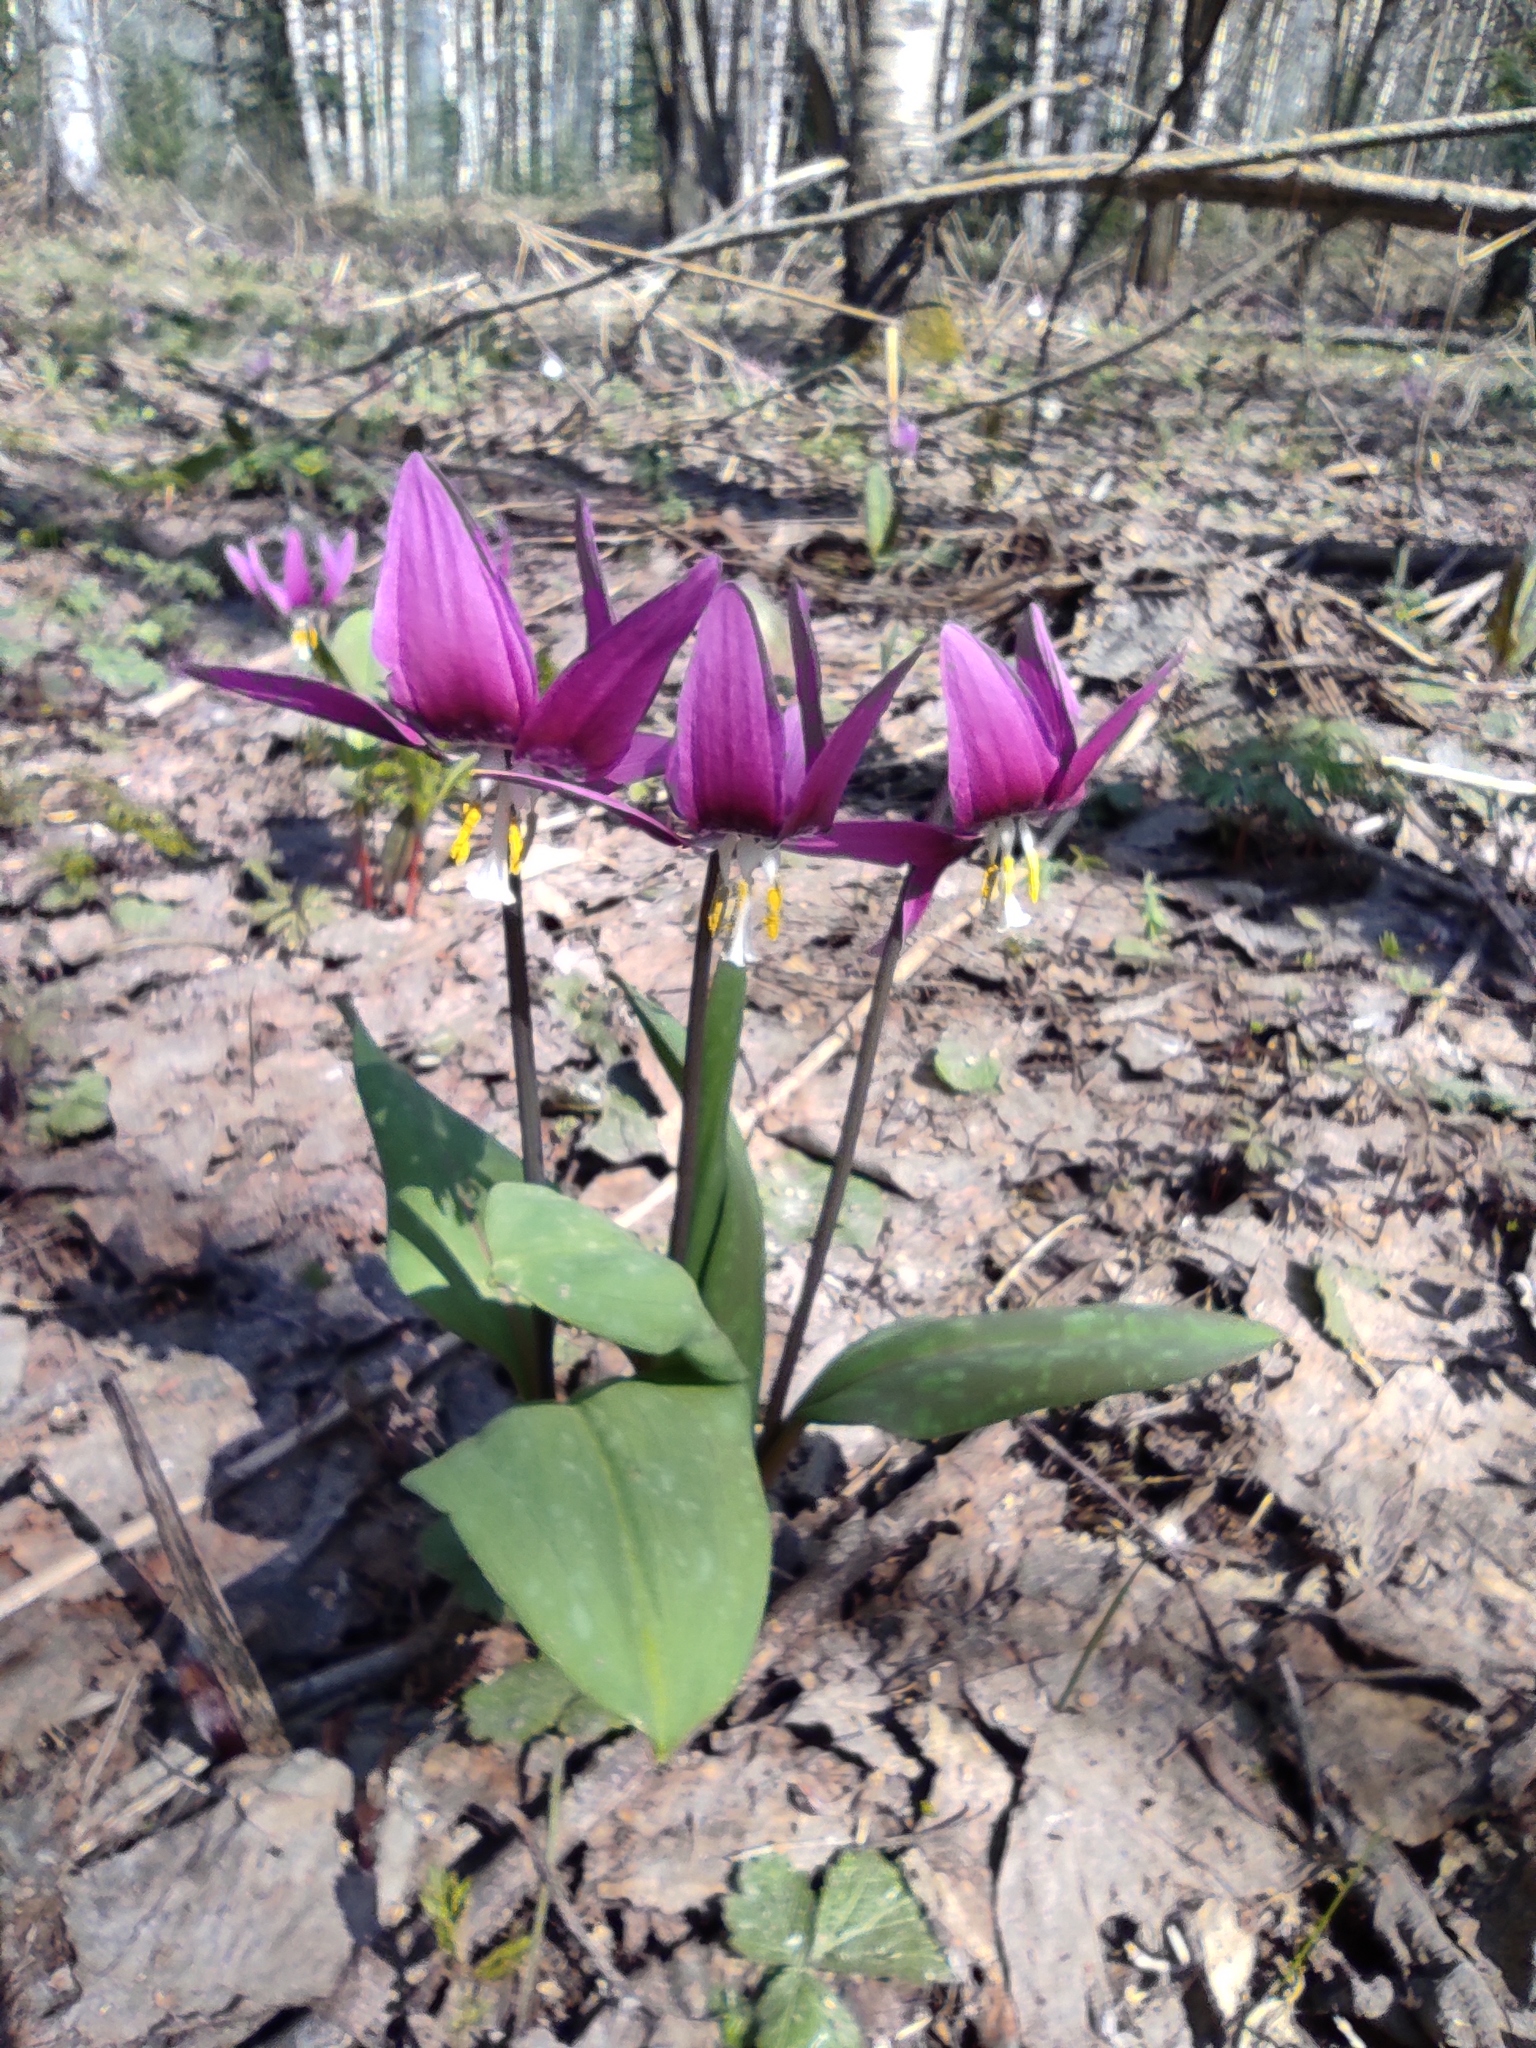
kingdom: Plantae
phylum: Tracheophyta
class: Liliopsida
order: Liliales
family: Liliaceae
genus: Erythronium
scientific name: Erythronium sibiricum
